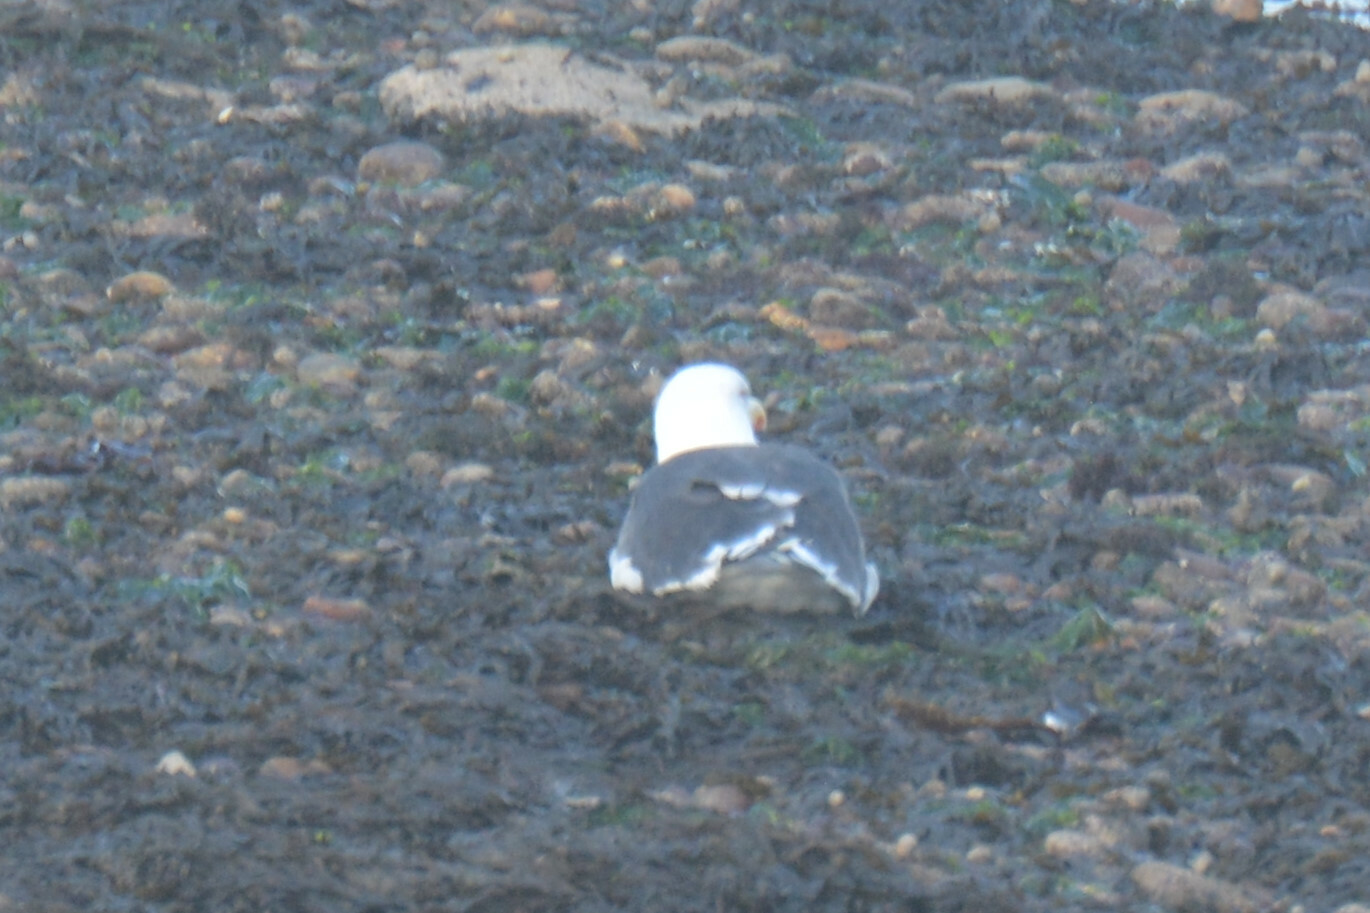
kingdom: Animalia
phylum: Chordata
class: Aves
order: Charadriiformes
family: Laridae
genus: Larus
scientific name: Larus marinus
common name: Great black-backed gull
